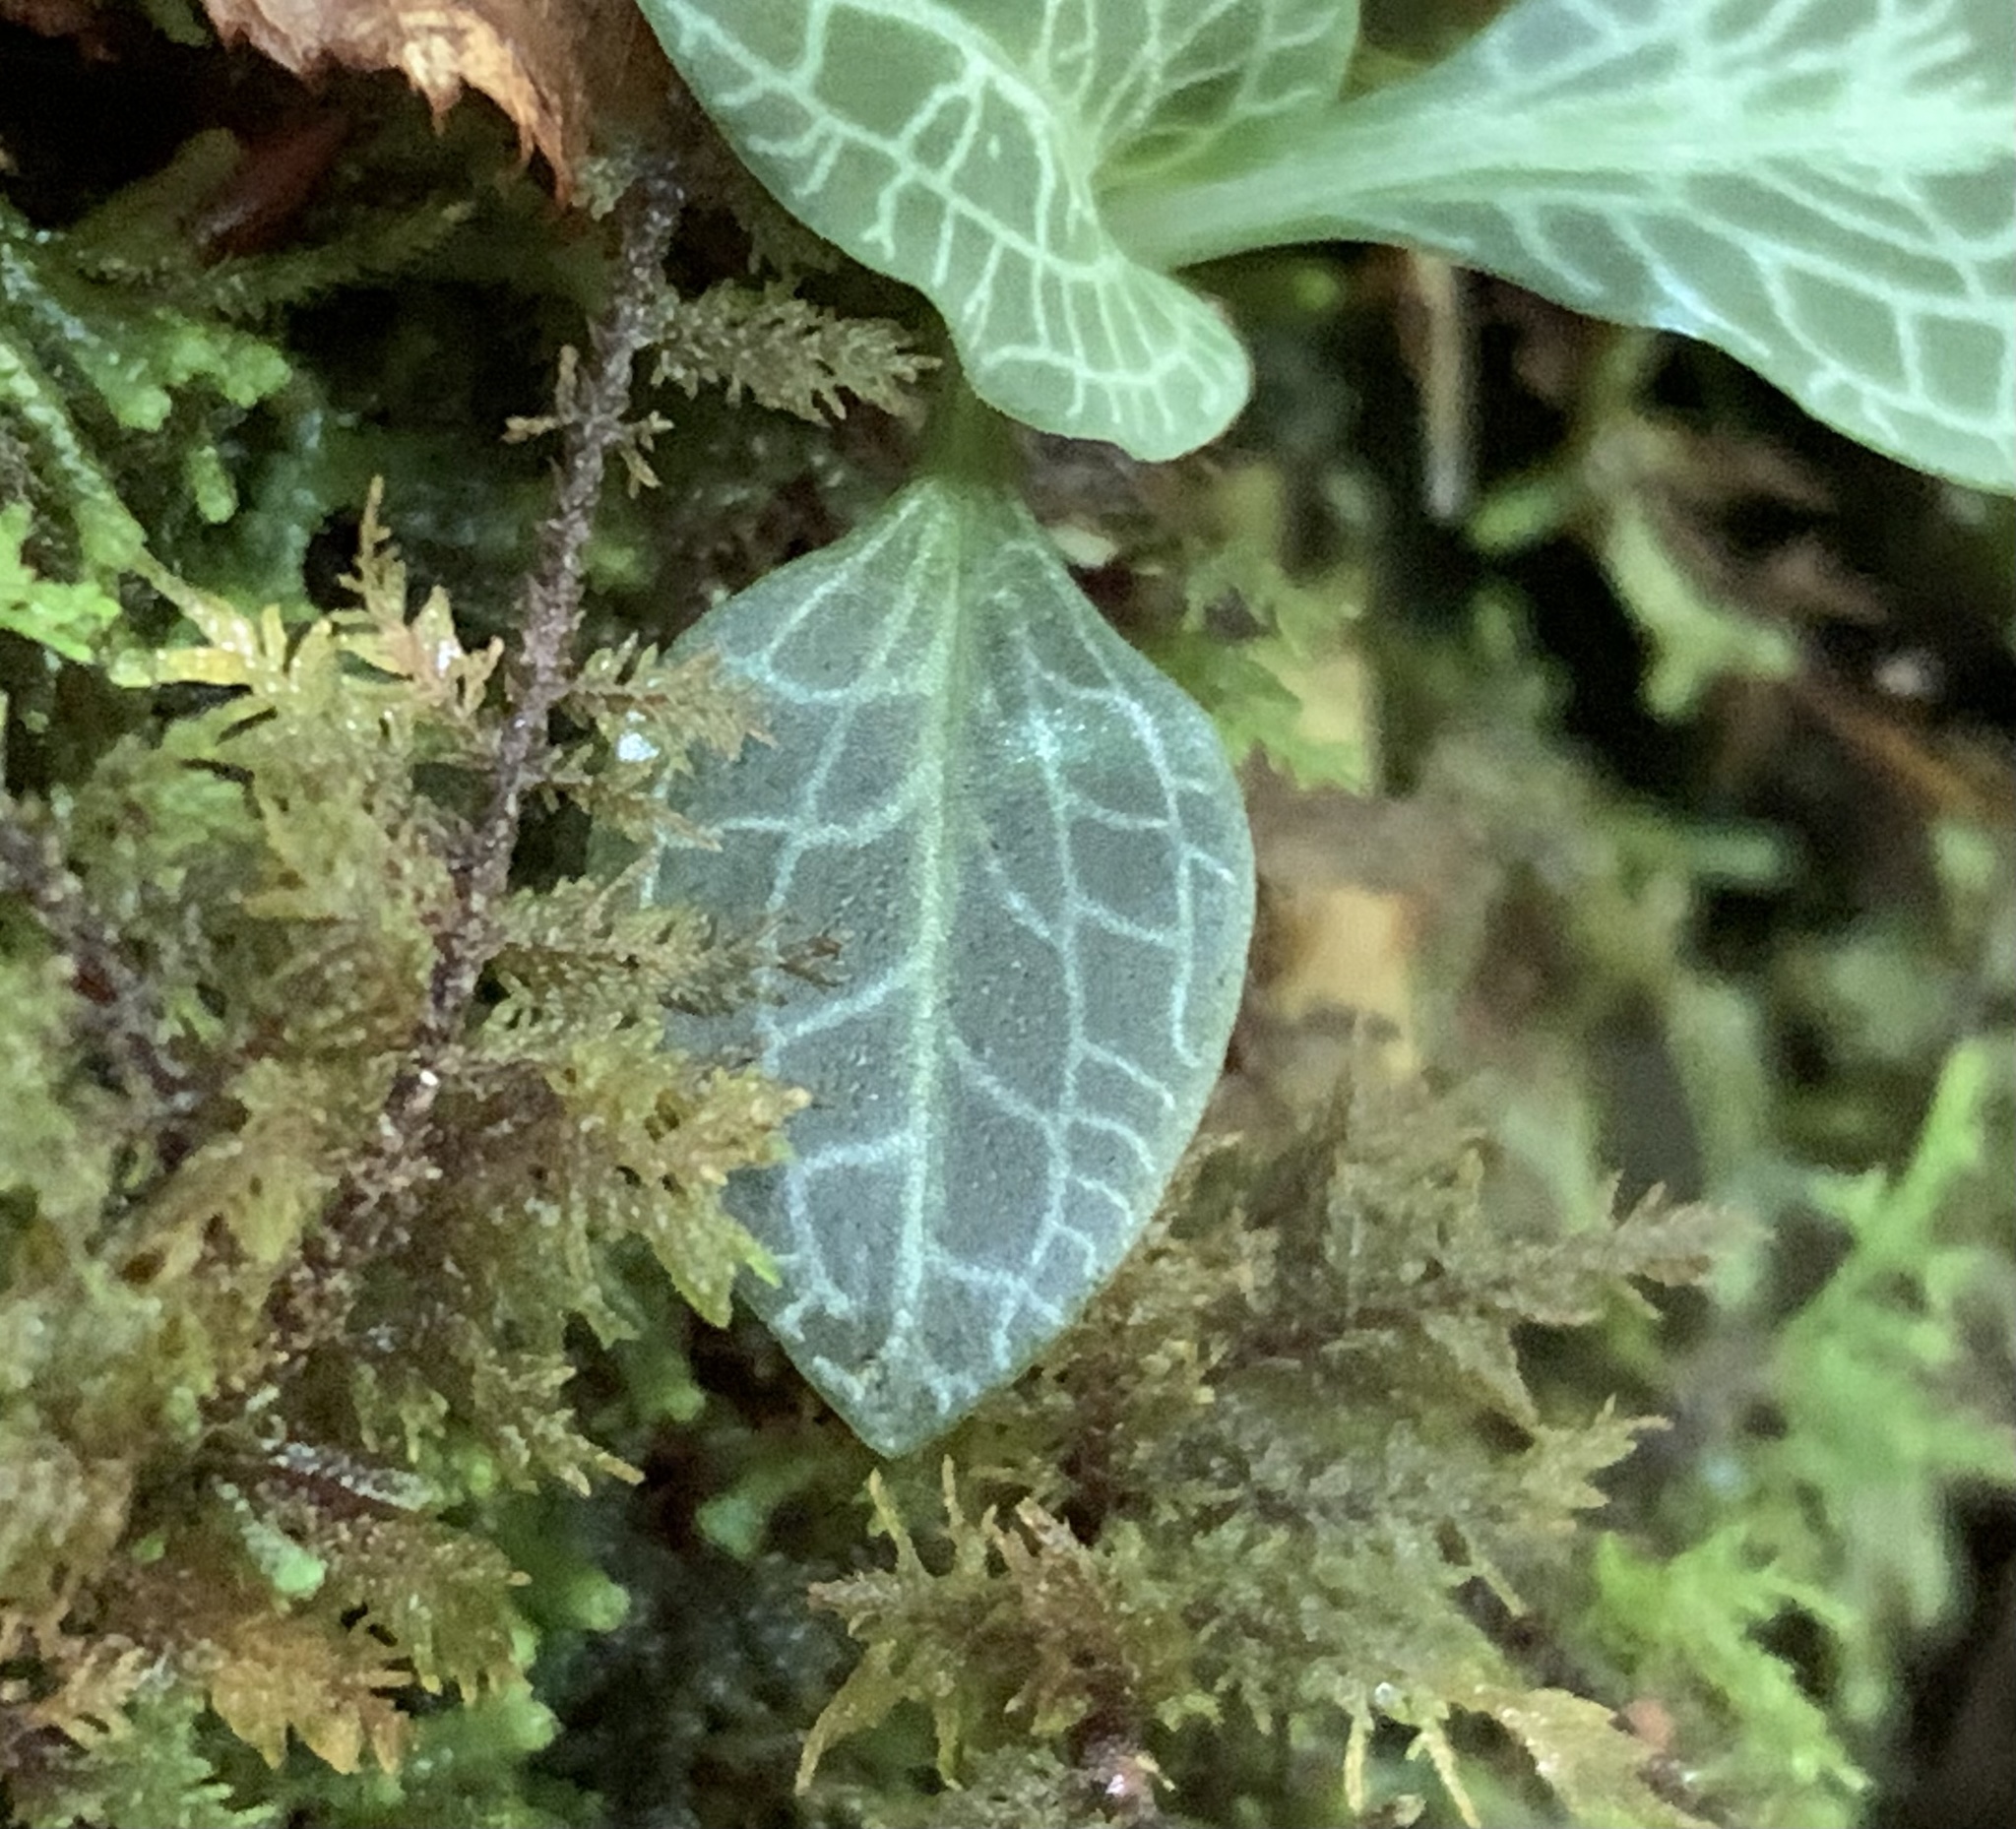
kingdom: Plantae
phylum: Tracheophyta
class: Liliopsida
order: Asparagales
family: Orchidaceae
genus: Goodyera
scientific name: Goodyera pubescens
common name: Downy rattlesnake-plantain
